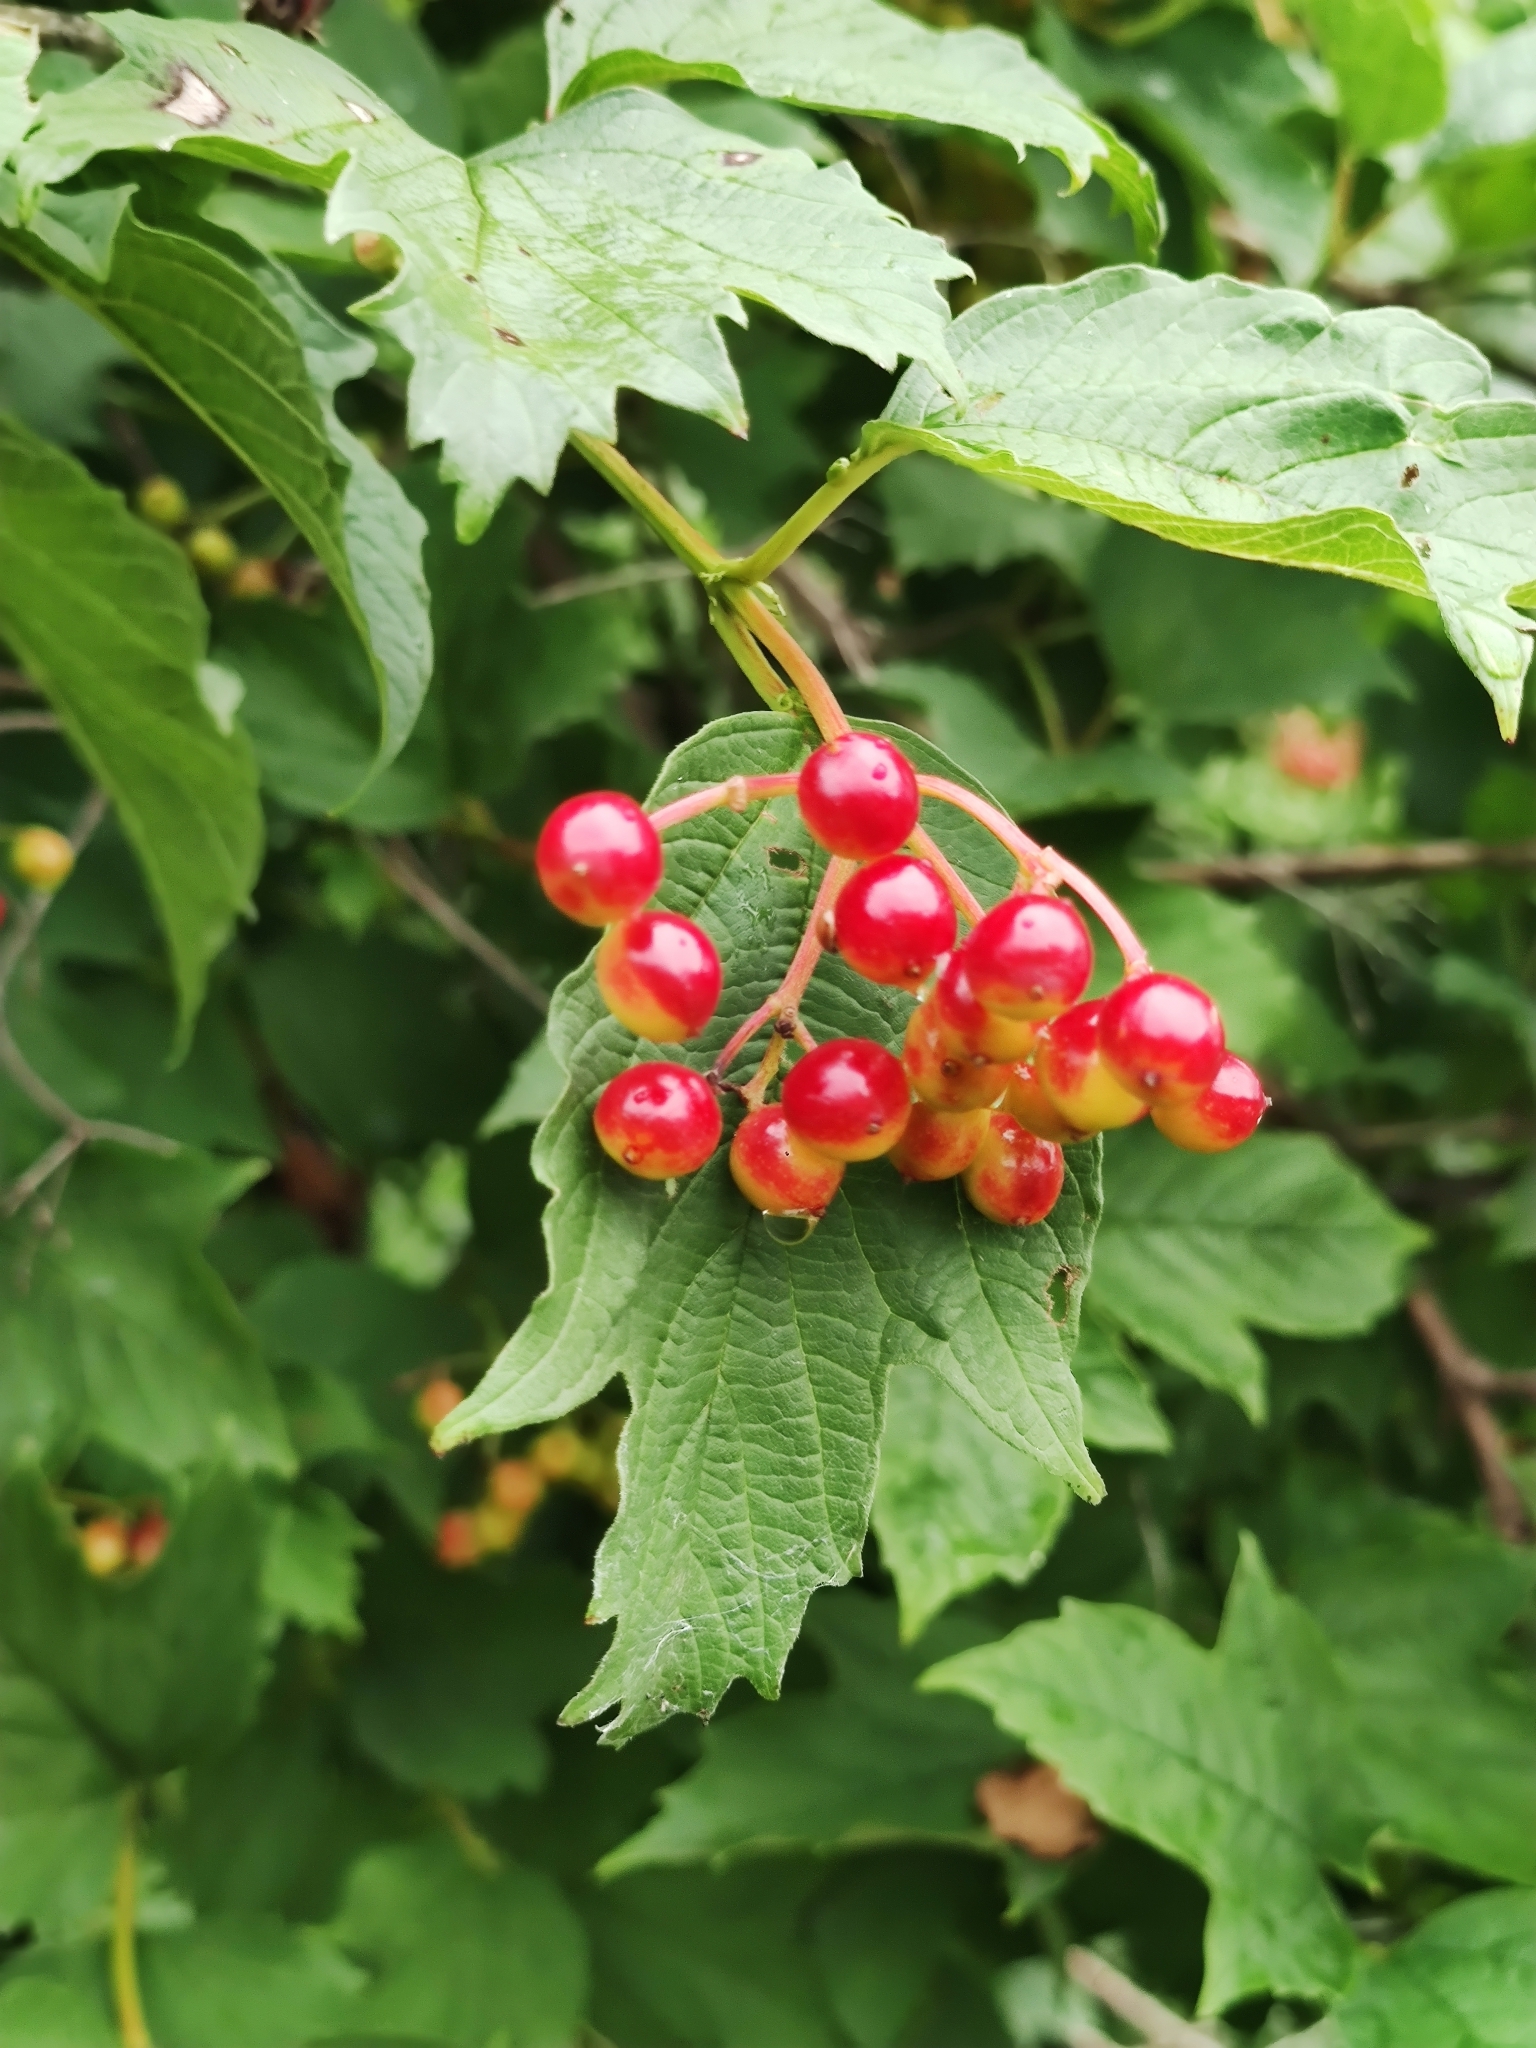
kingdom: Plantae
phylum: Tracheophyta
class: Magnoliopsida
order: Dipsacales
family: Viburnaceae
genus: Viburnum
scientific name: Viburnum opulus
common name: Guelder-rose
